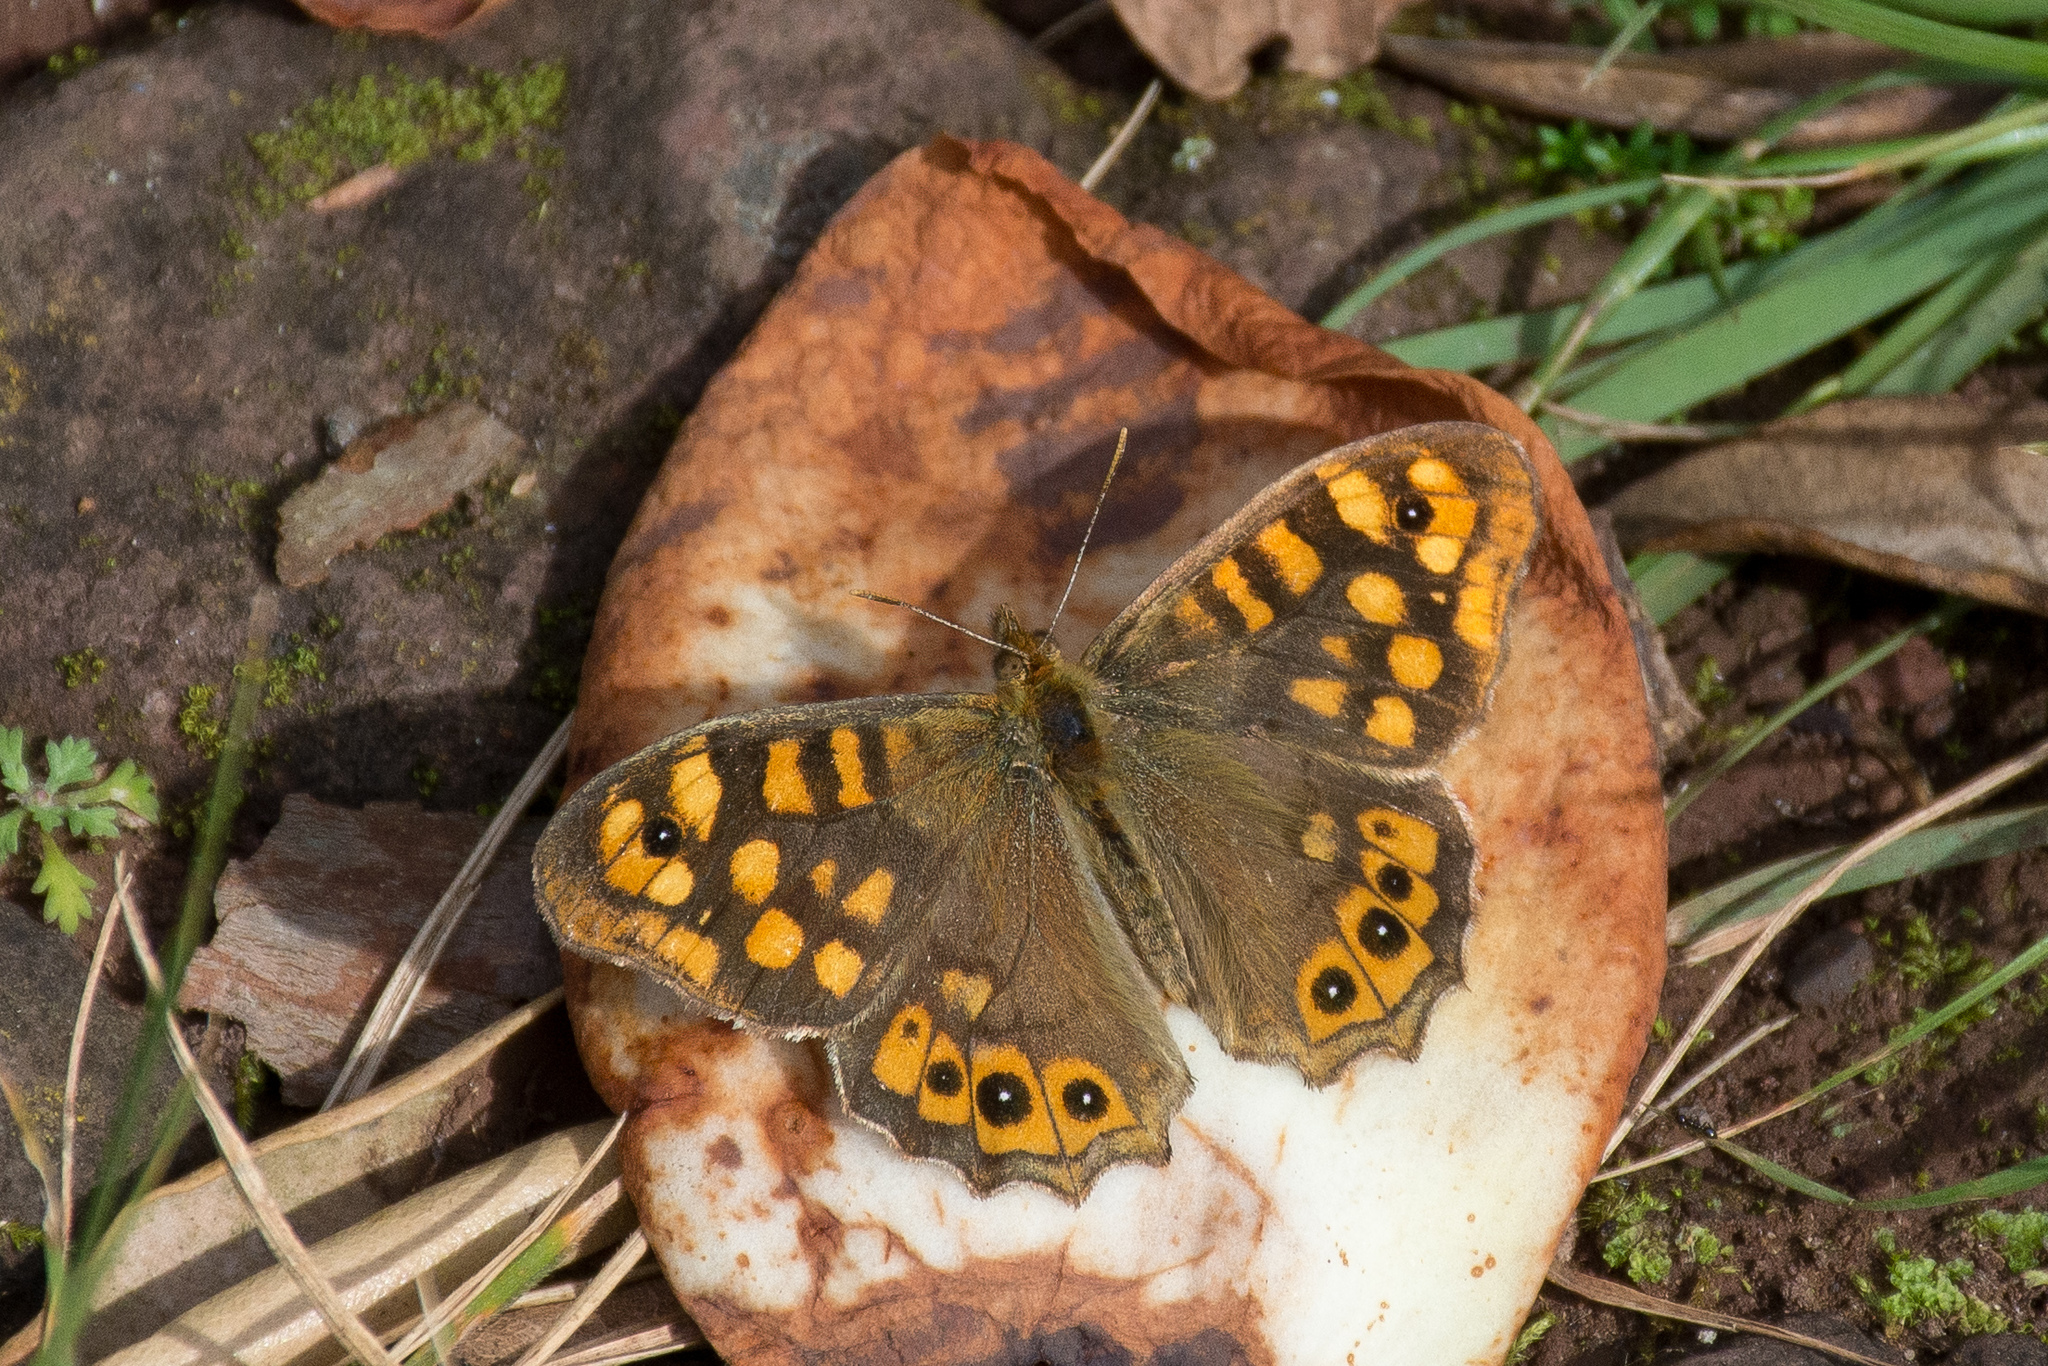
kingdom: Animalia
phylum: Arthropoda
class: Insecta
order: Lepidoptera
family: Nymphalidae
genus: Pararge
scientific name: Pararge aegeria
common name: Speckled wood
